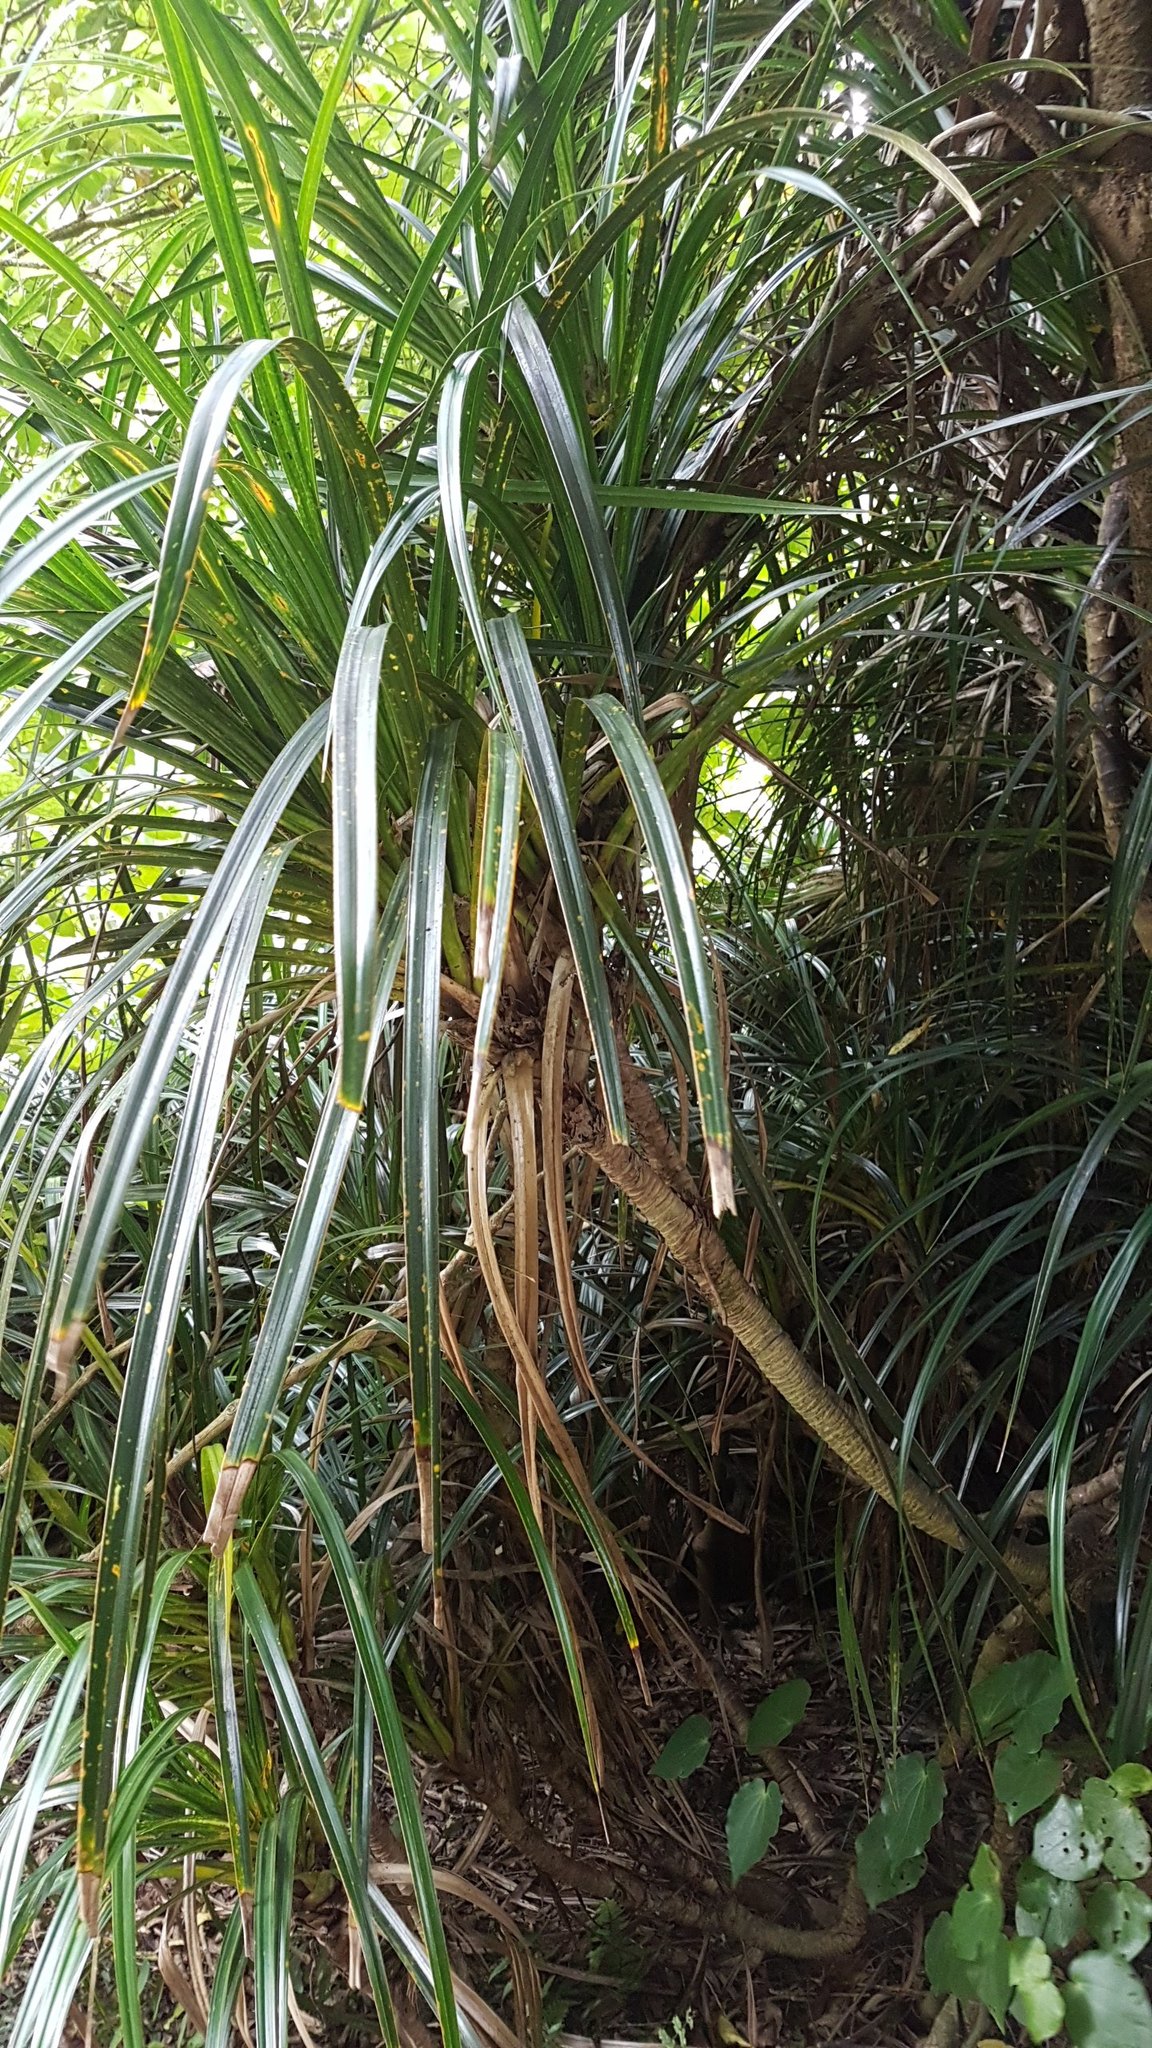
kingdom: Plantae
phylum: Tracheophyta
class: Liliopsida
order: Pandanales
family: Pandanaceae
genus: Freycinetia
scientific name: Freycinetia banksii
